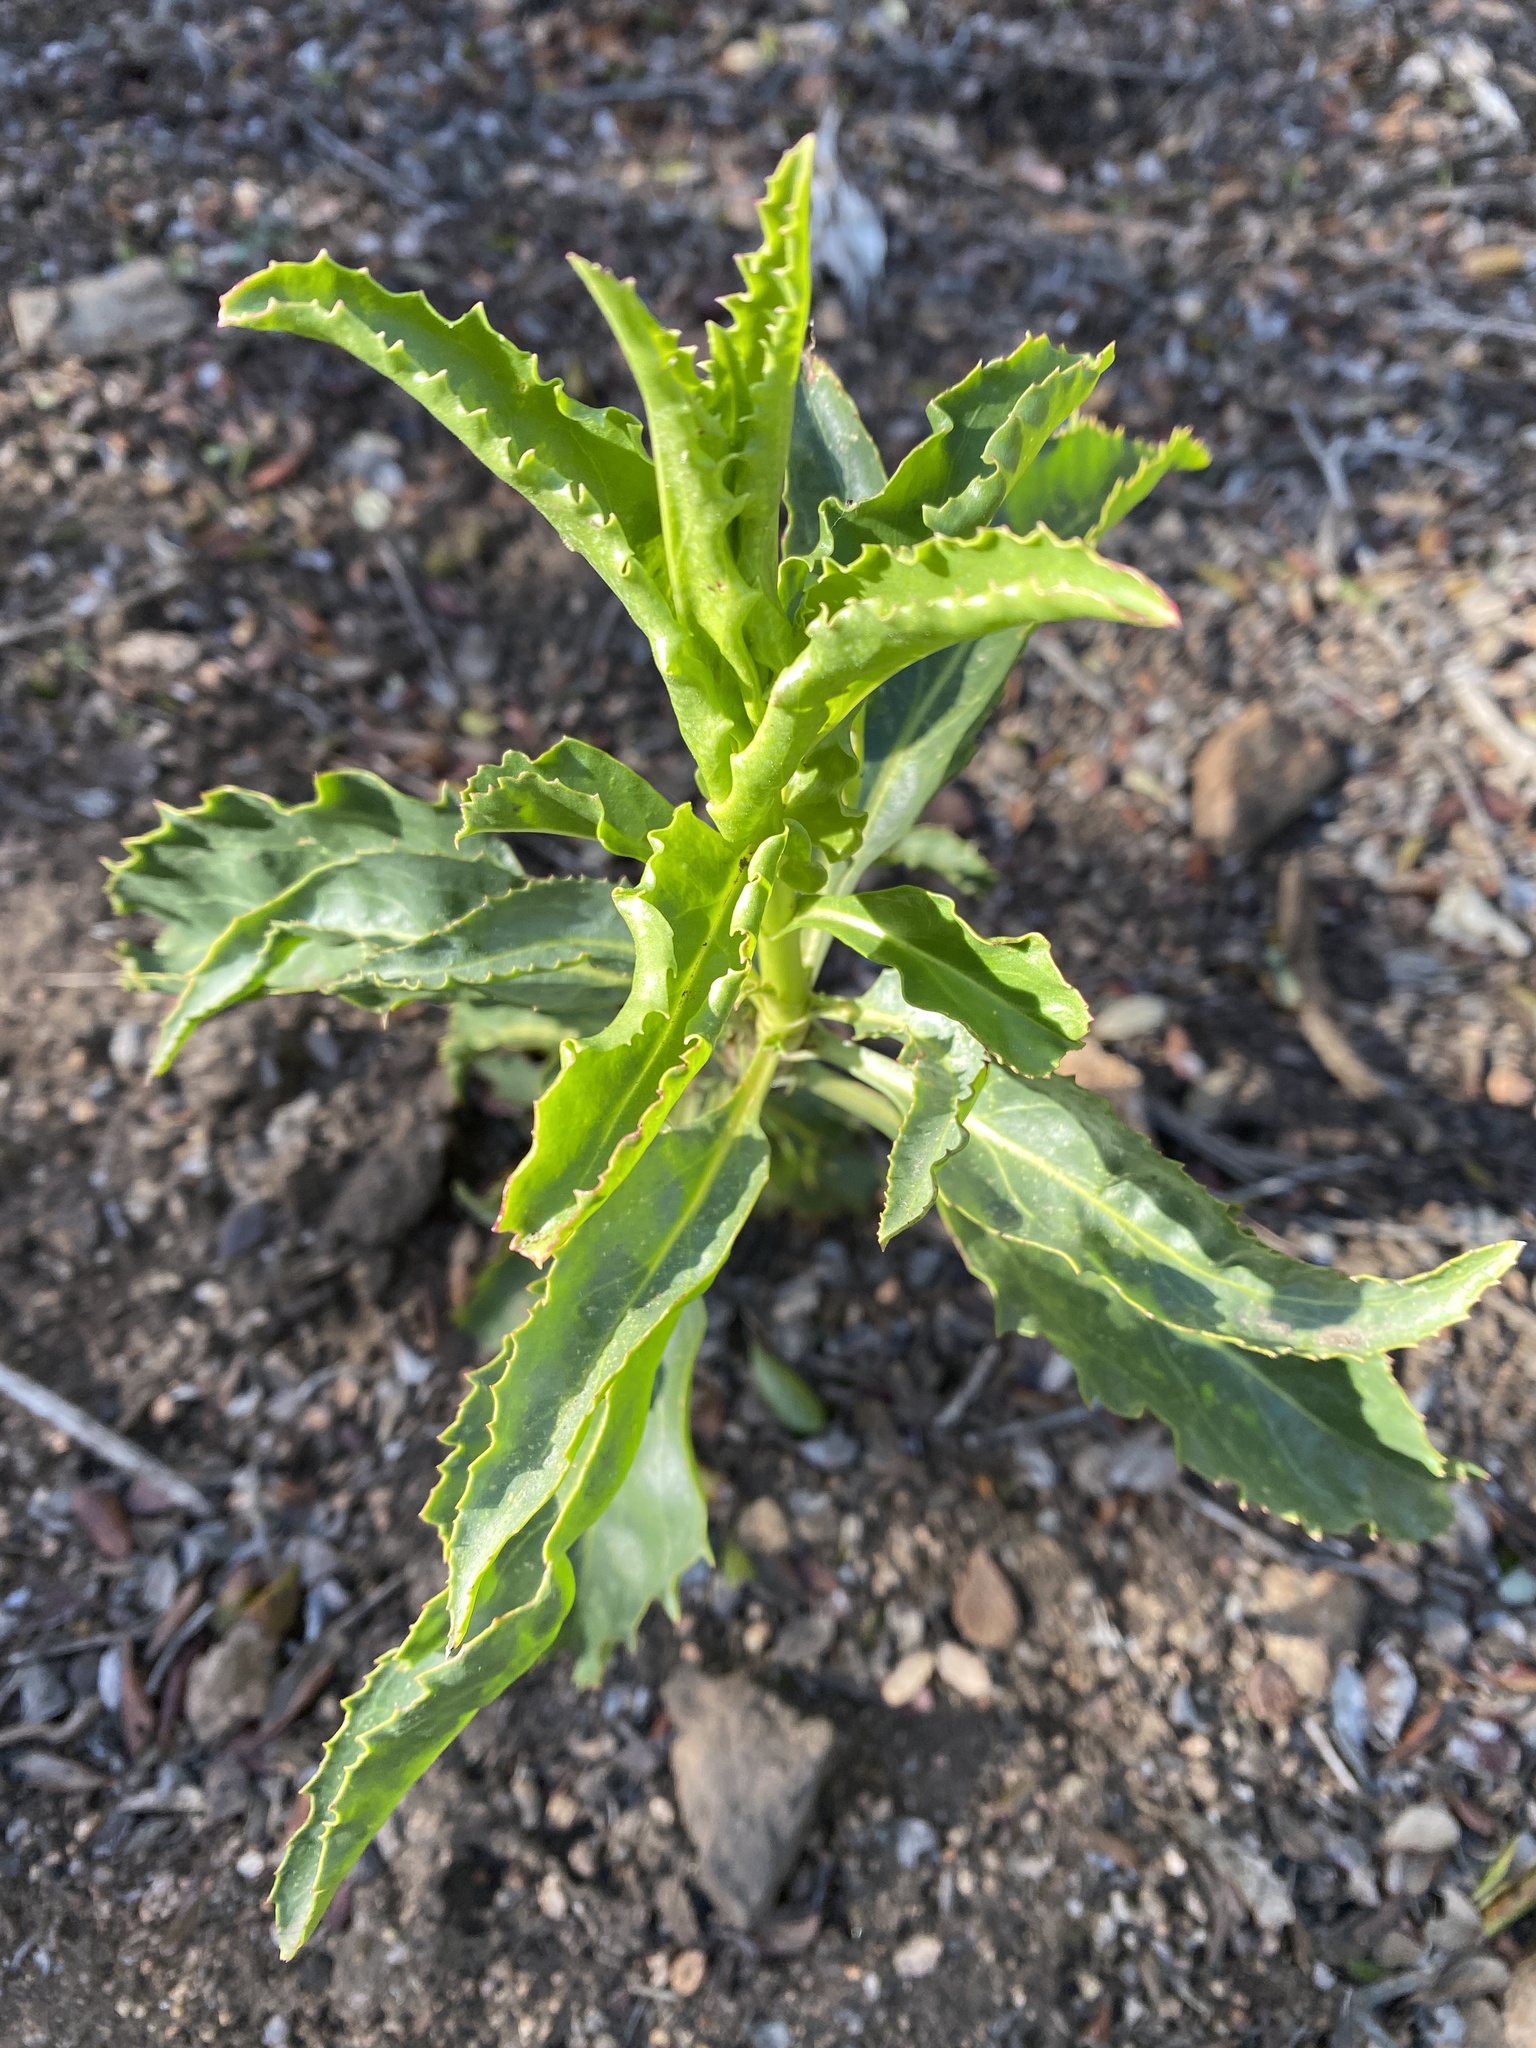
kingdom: Plantae
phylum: Tracheophyta
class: Magnoliopsida
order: Lamiales
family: Plantaginaceae
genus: Penstemon
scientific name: Penstemon spectabilis
